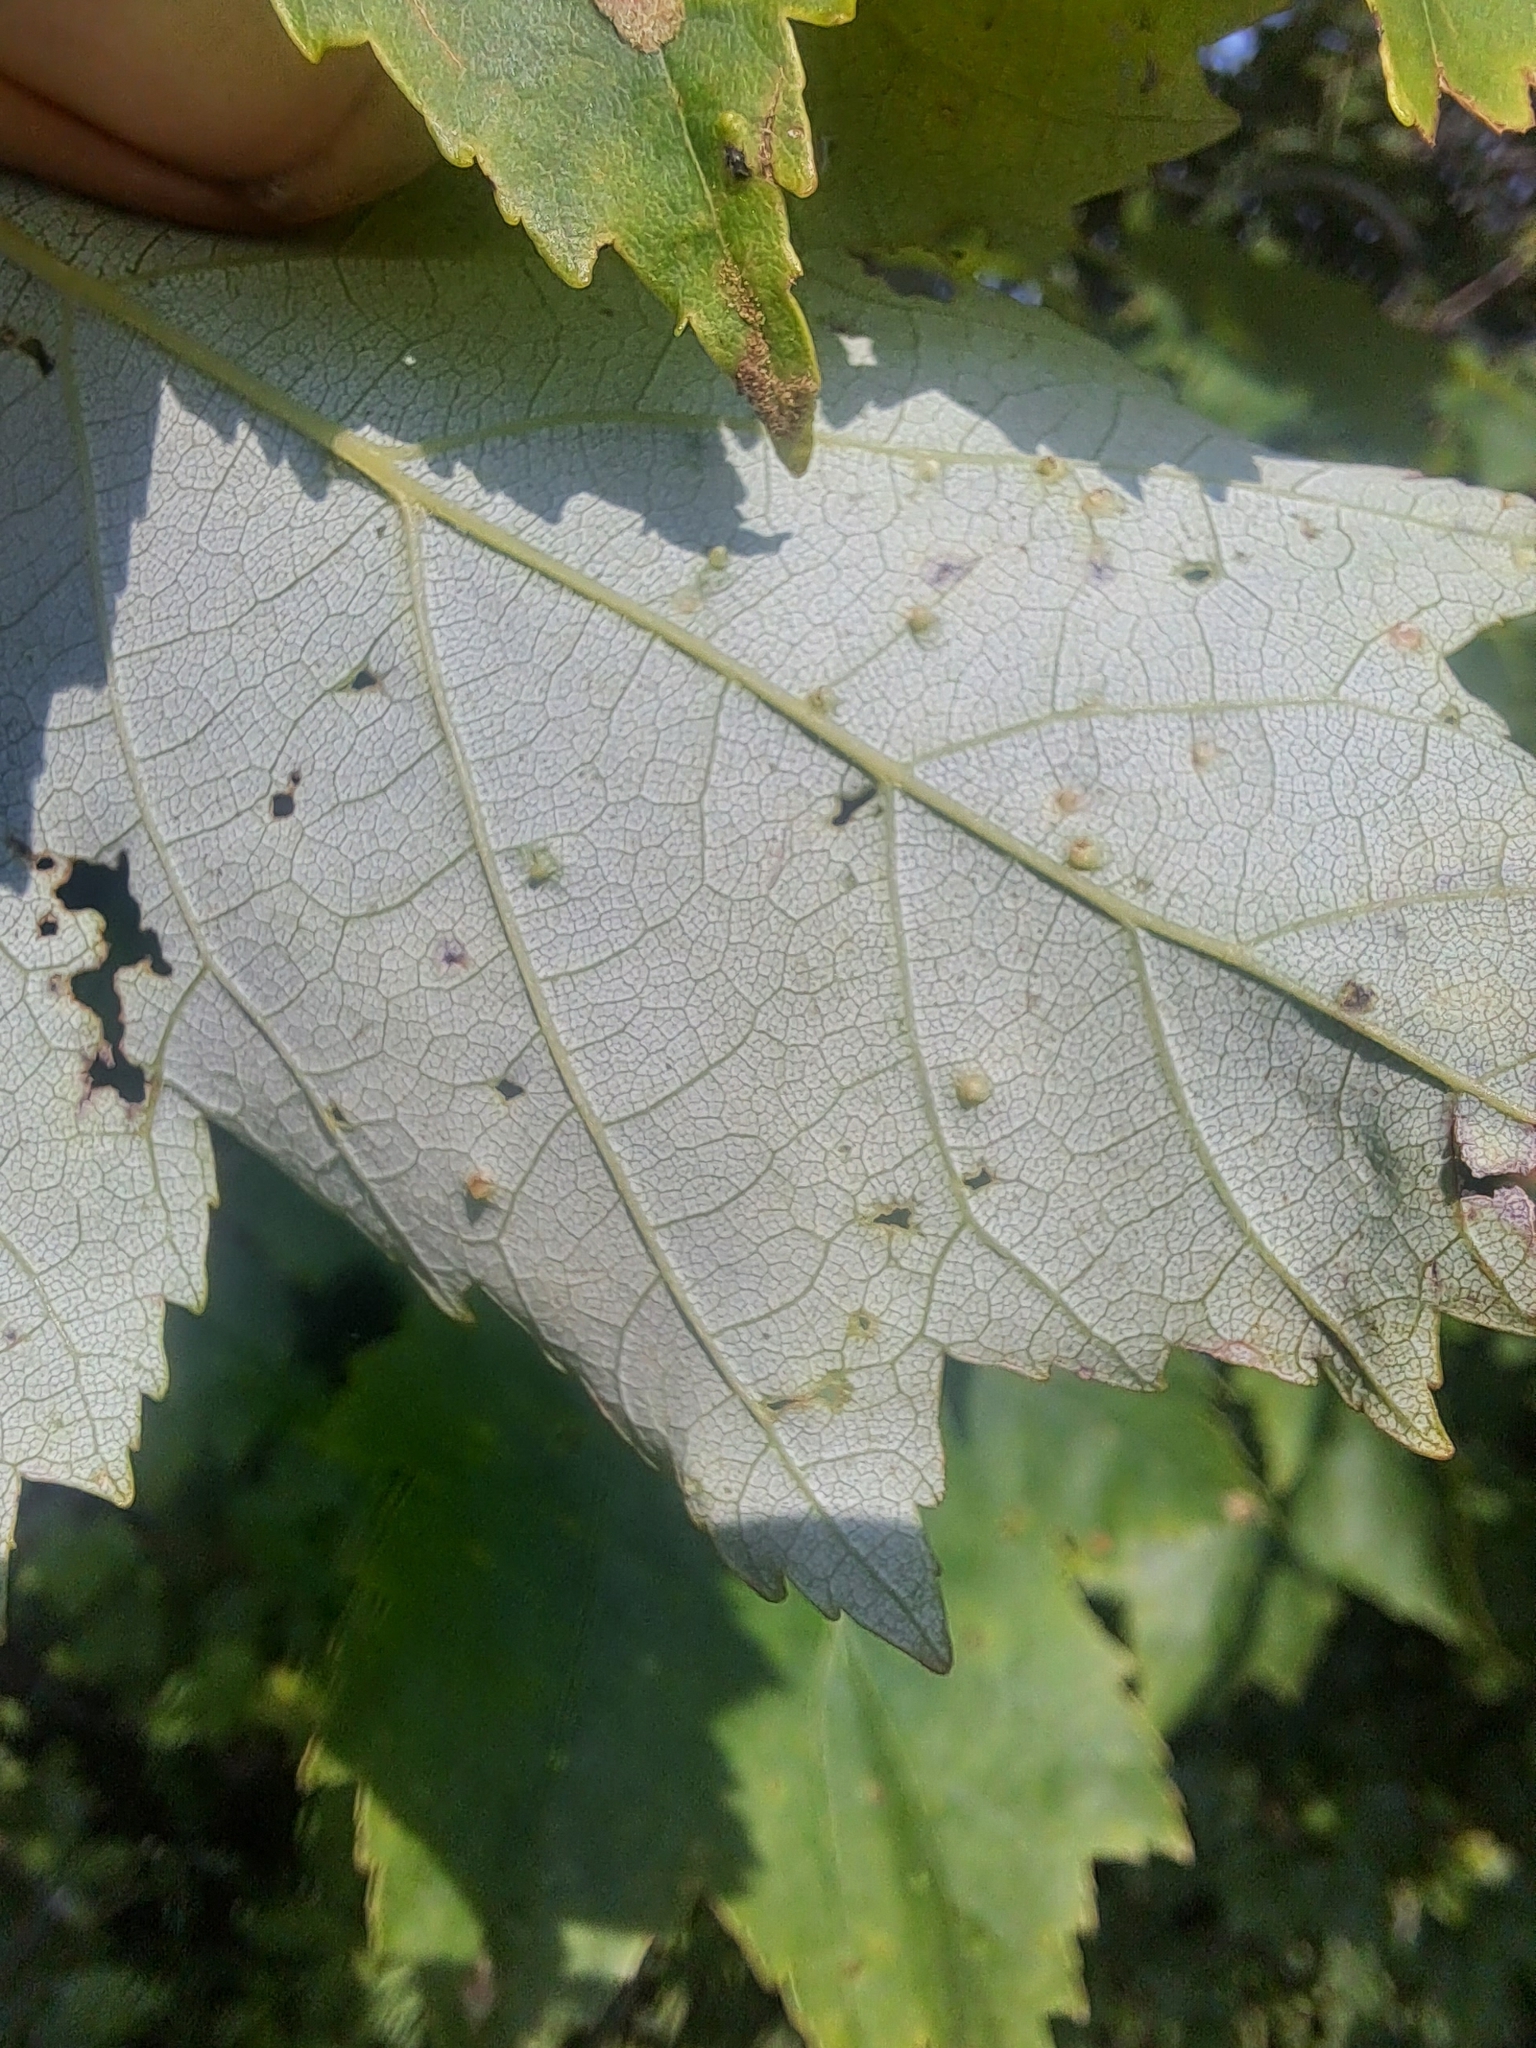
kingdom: Animalia
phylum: Arthropoda
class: Arachnida
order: Trombidiformes
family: Eriophyidae
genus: Vasates
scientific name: Vasates quadripedes
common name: Maple bladder gall mite
